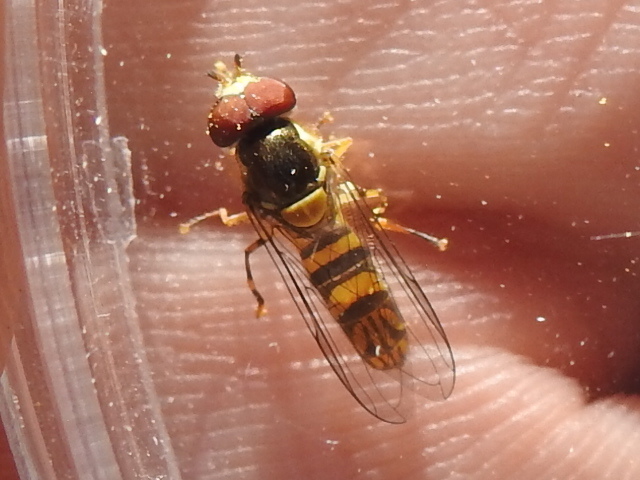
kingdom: Animalia
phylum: Arthropoda
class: Insecta
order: Diptera
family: Syrphidae
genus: Allograpta
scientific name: Allograpta obliqua
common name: Common oblique syrphid
